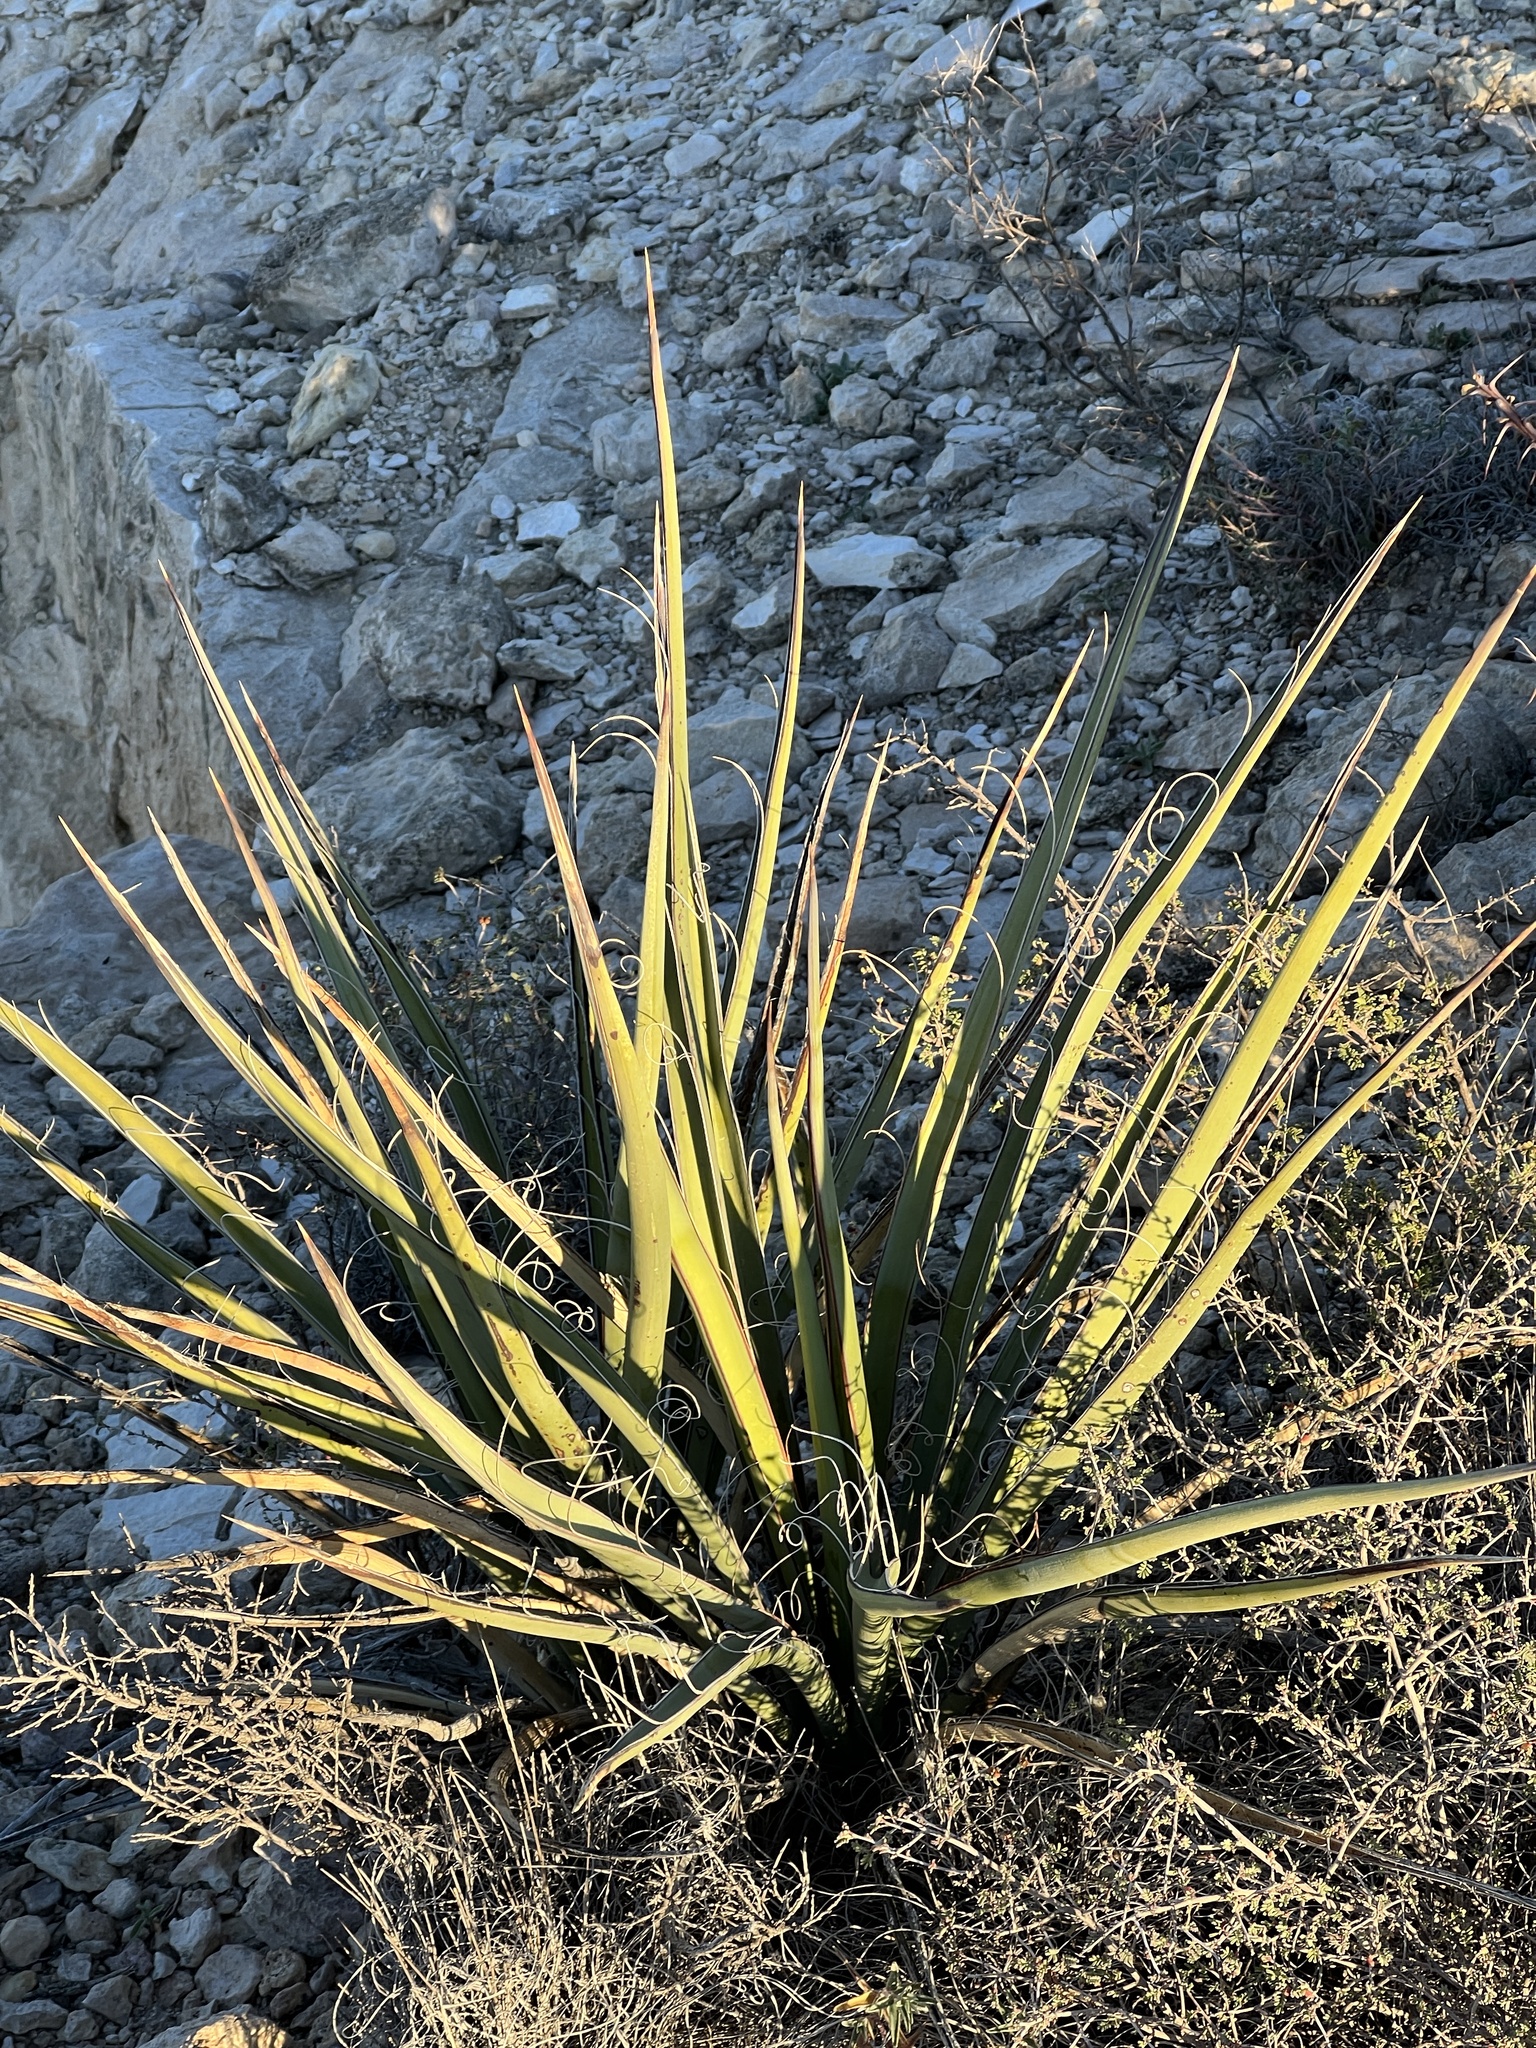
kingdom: Plantae
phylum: Tracheophyta
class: Liliopsida
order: Asparagales
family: Asparagaceae
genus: Yucca
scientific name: Yucca treculiana
